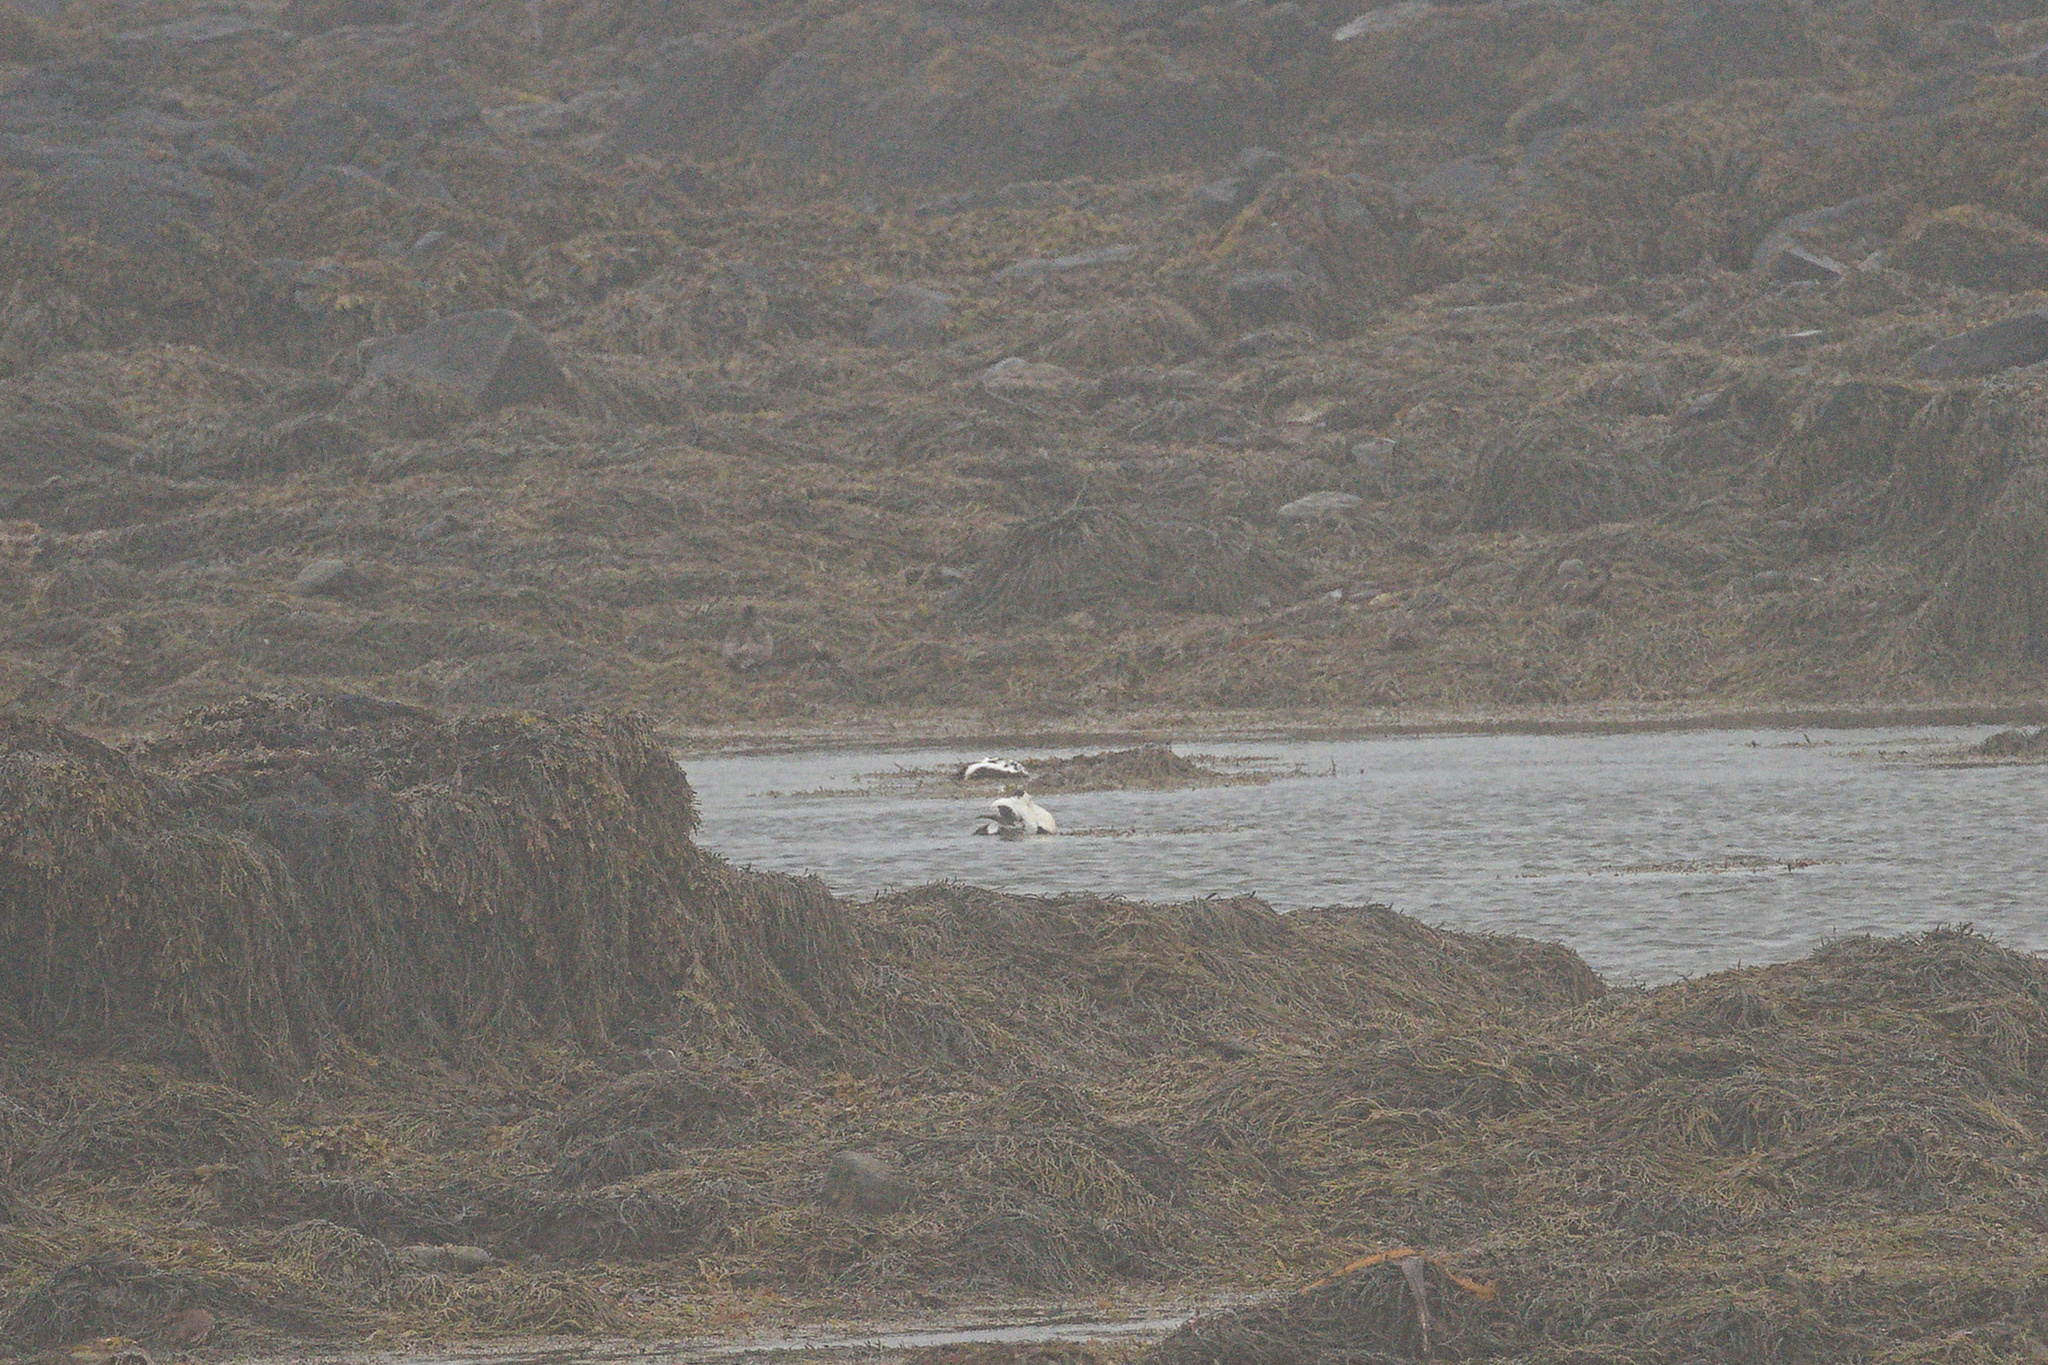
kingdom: Animalia
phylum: Chordata
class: Aves
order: Anseriformes
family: Anatidae
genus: Somateria
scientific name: Somateria mollissima
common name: Common eider
